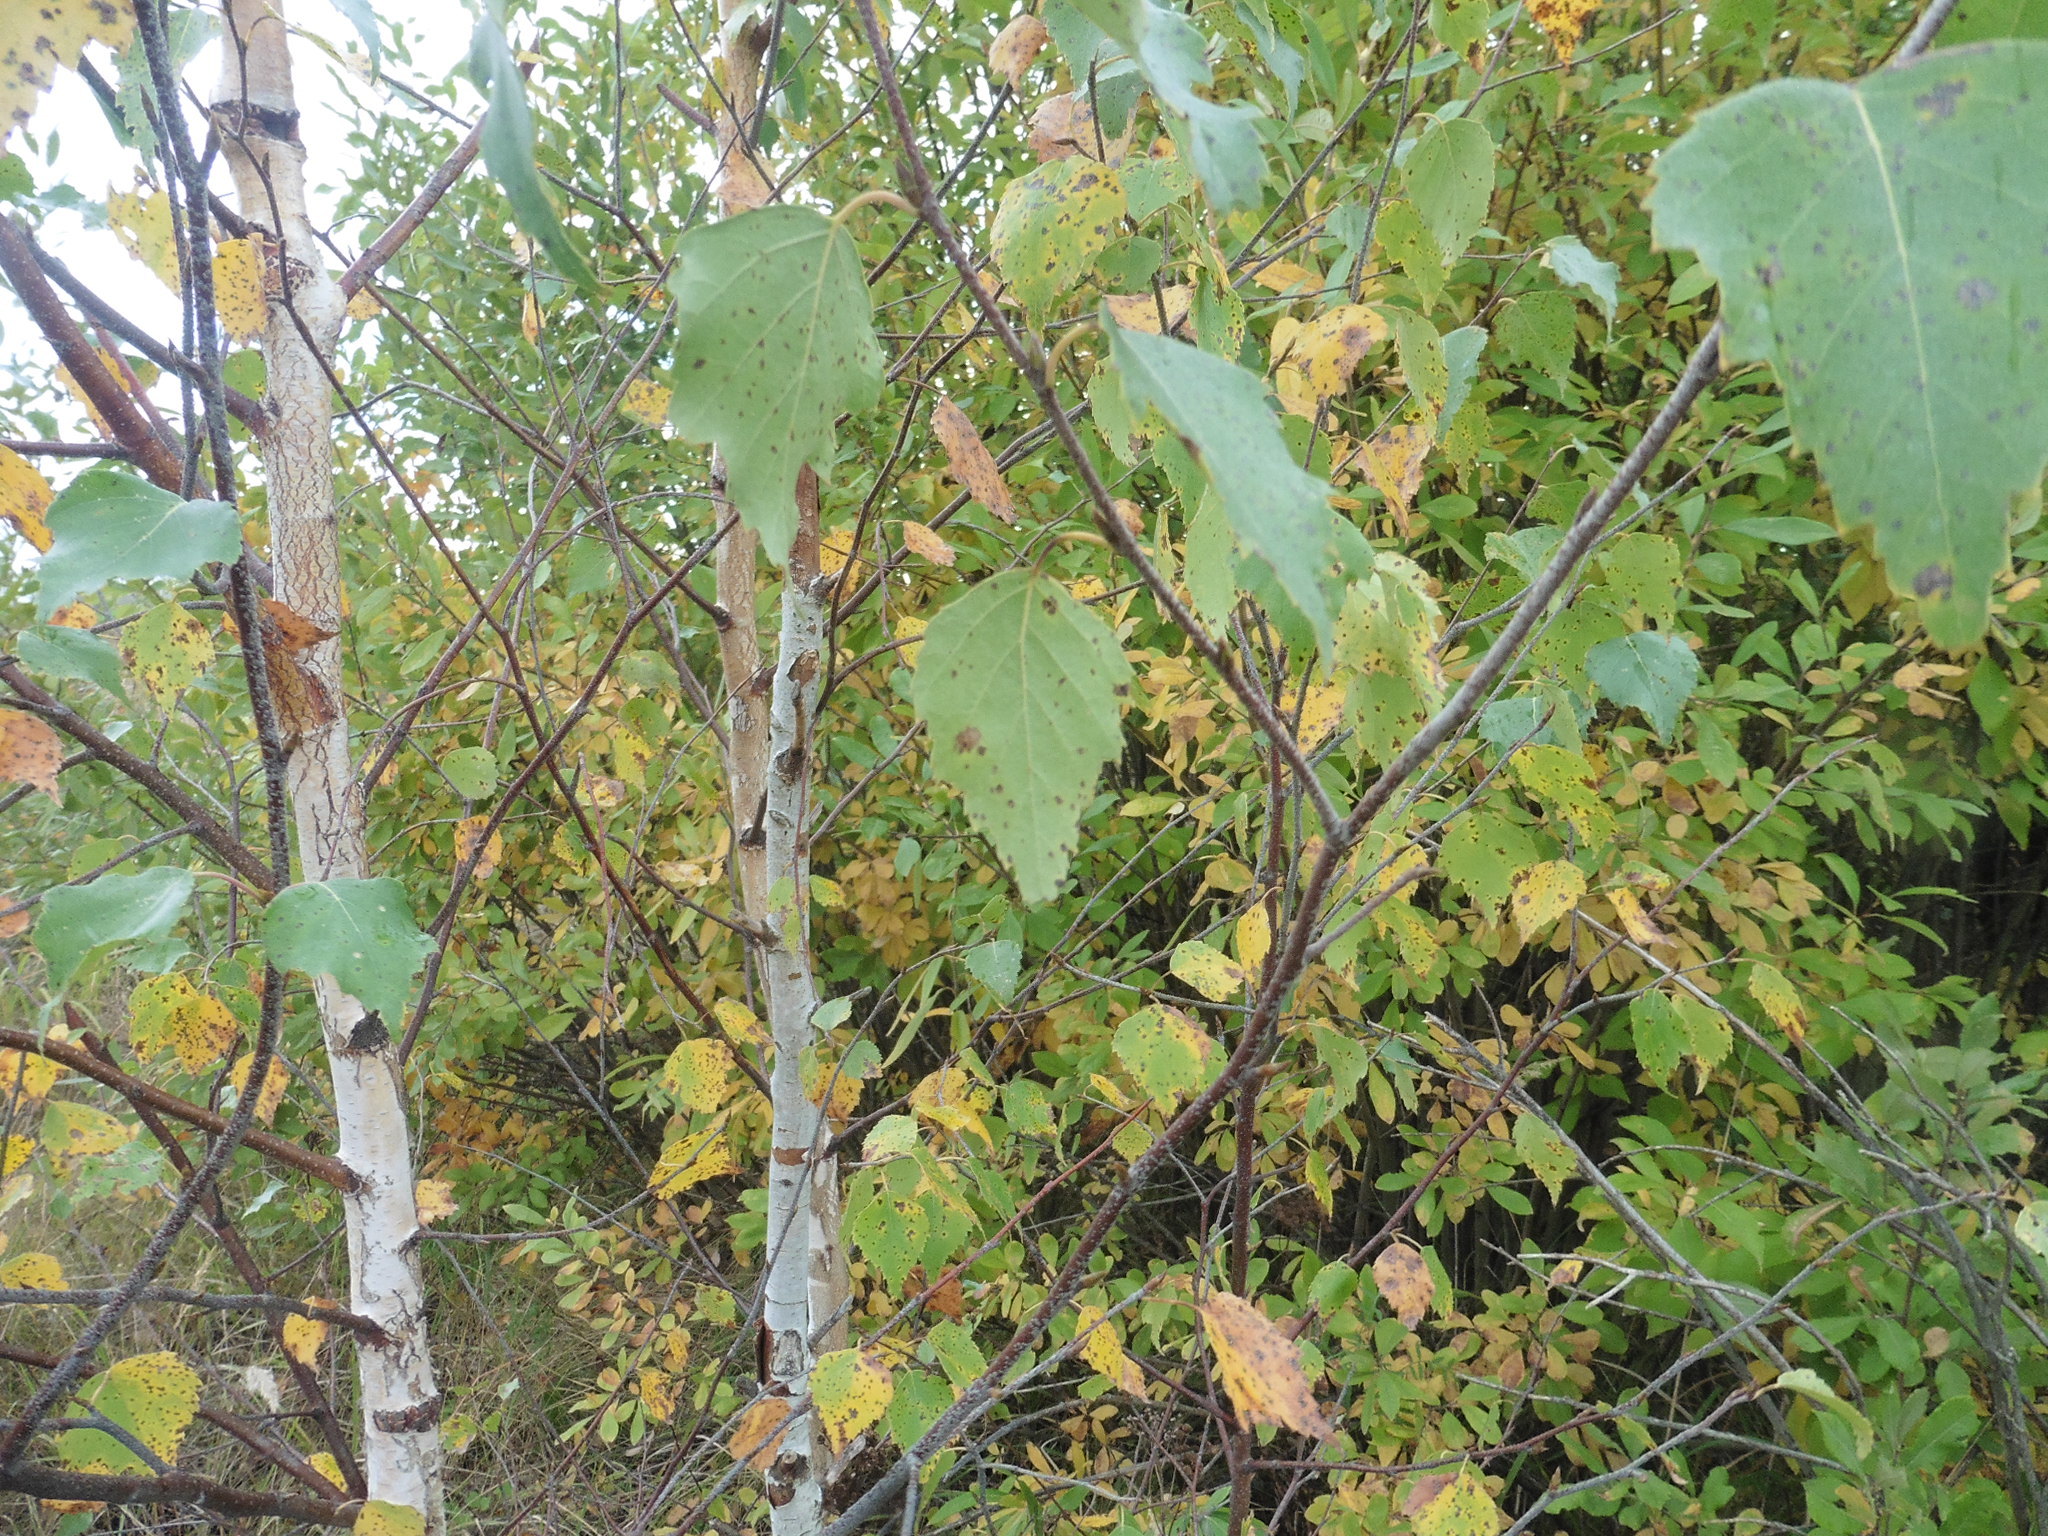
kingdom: Plantae
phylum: Tracheophyta
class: Magnoliopsida
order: Fagales
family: Betulaceae
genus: Betula
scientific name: Betula pendula
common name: Silver birch
